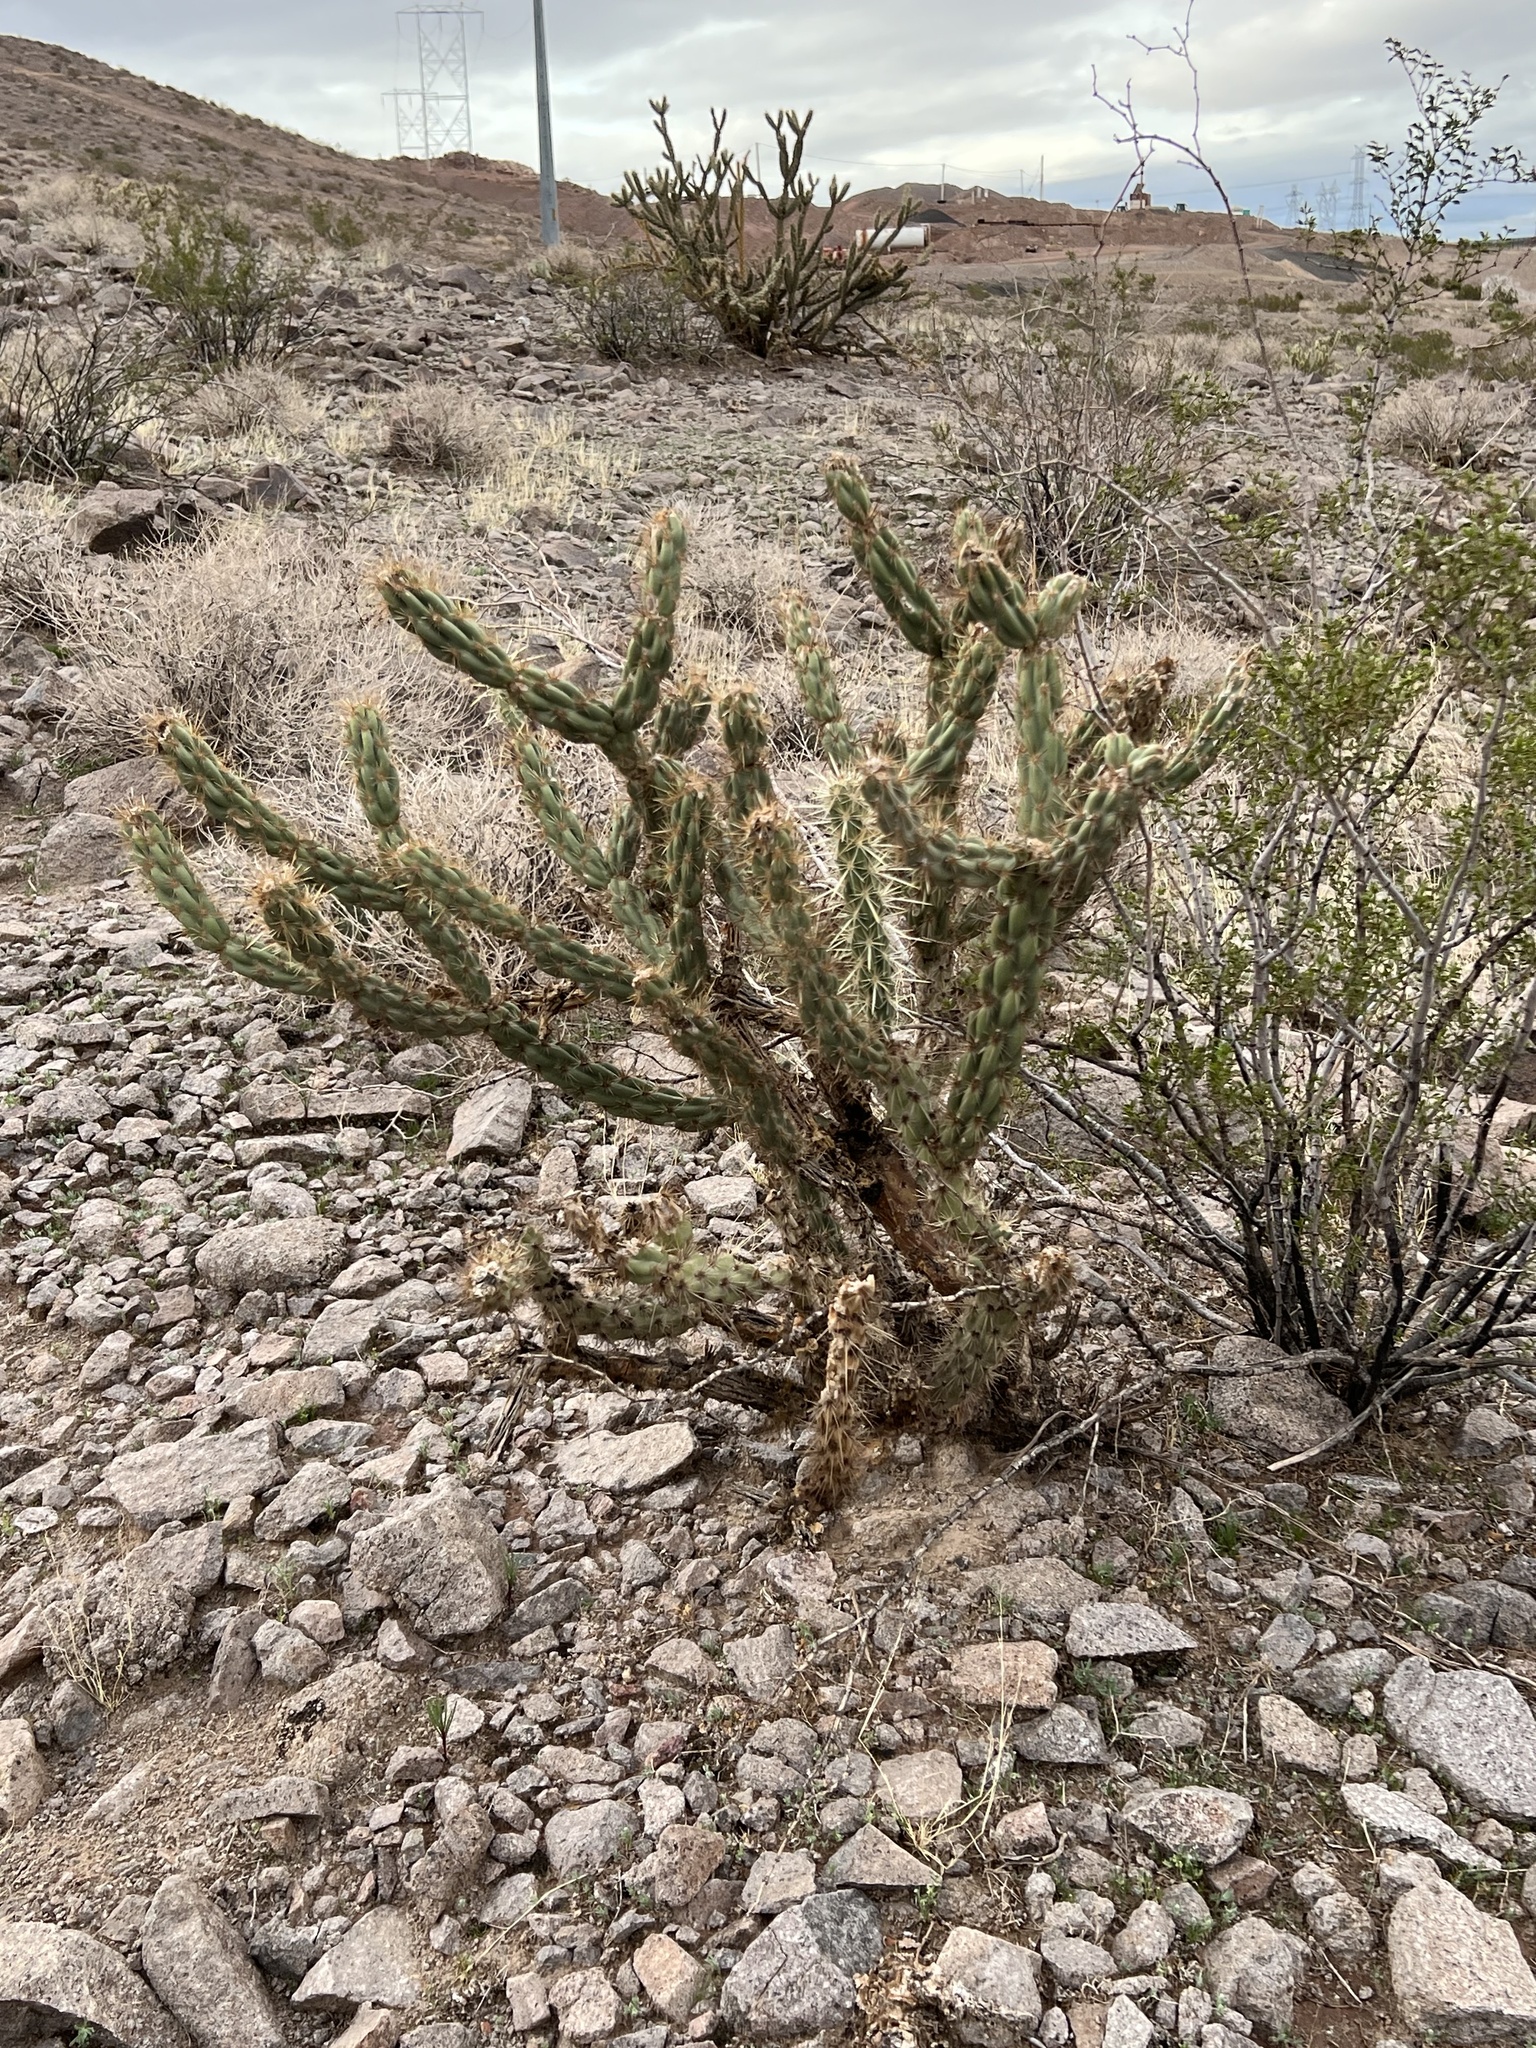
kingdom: Plantae
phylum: Tracheophyta
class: Magnoliopsida
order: Caryophyllales
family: Cactaceae
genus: Cylindropuntia
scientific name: Cylindropuntia acanthocarpa
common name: Buckhorn cholla
